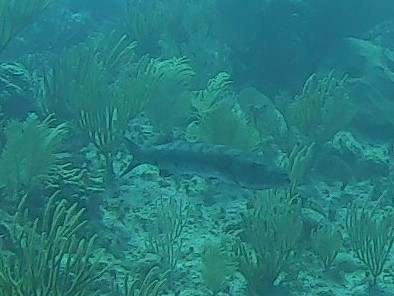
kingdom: Animalia
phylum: Chordata
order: Perciformes
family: Sphyraenidae
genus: Sphyraena
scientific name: Sphyraena barracuda
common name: Great barracuda
